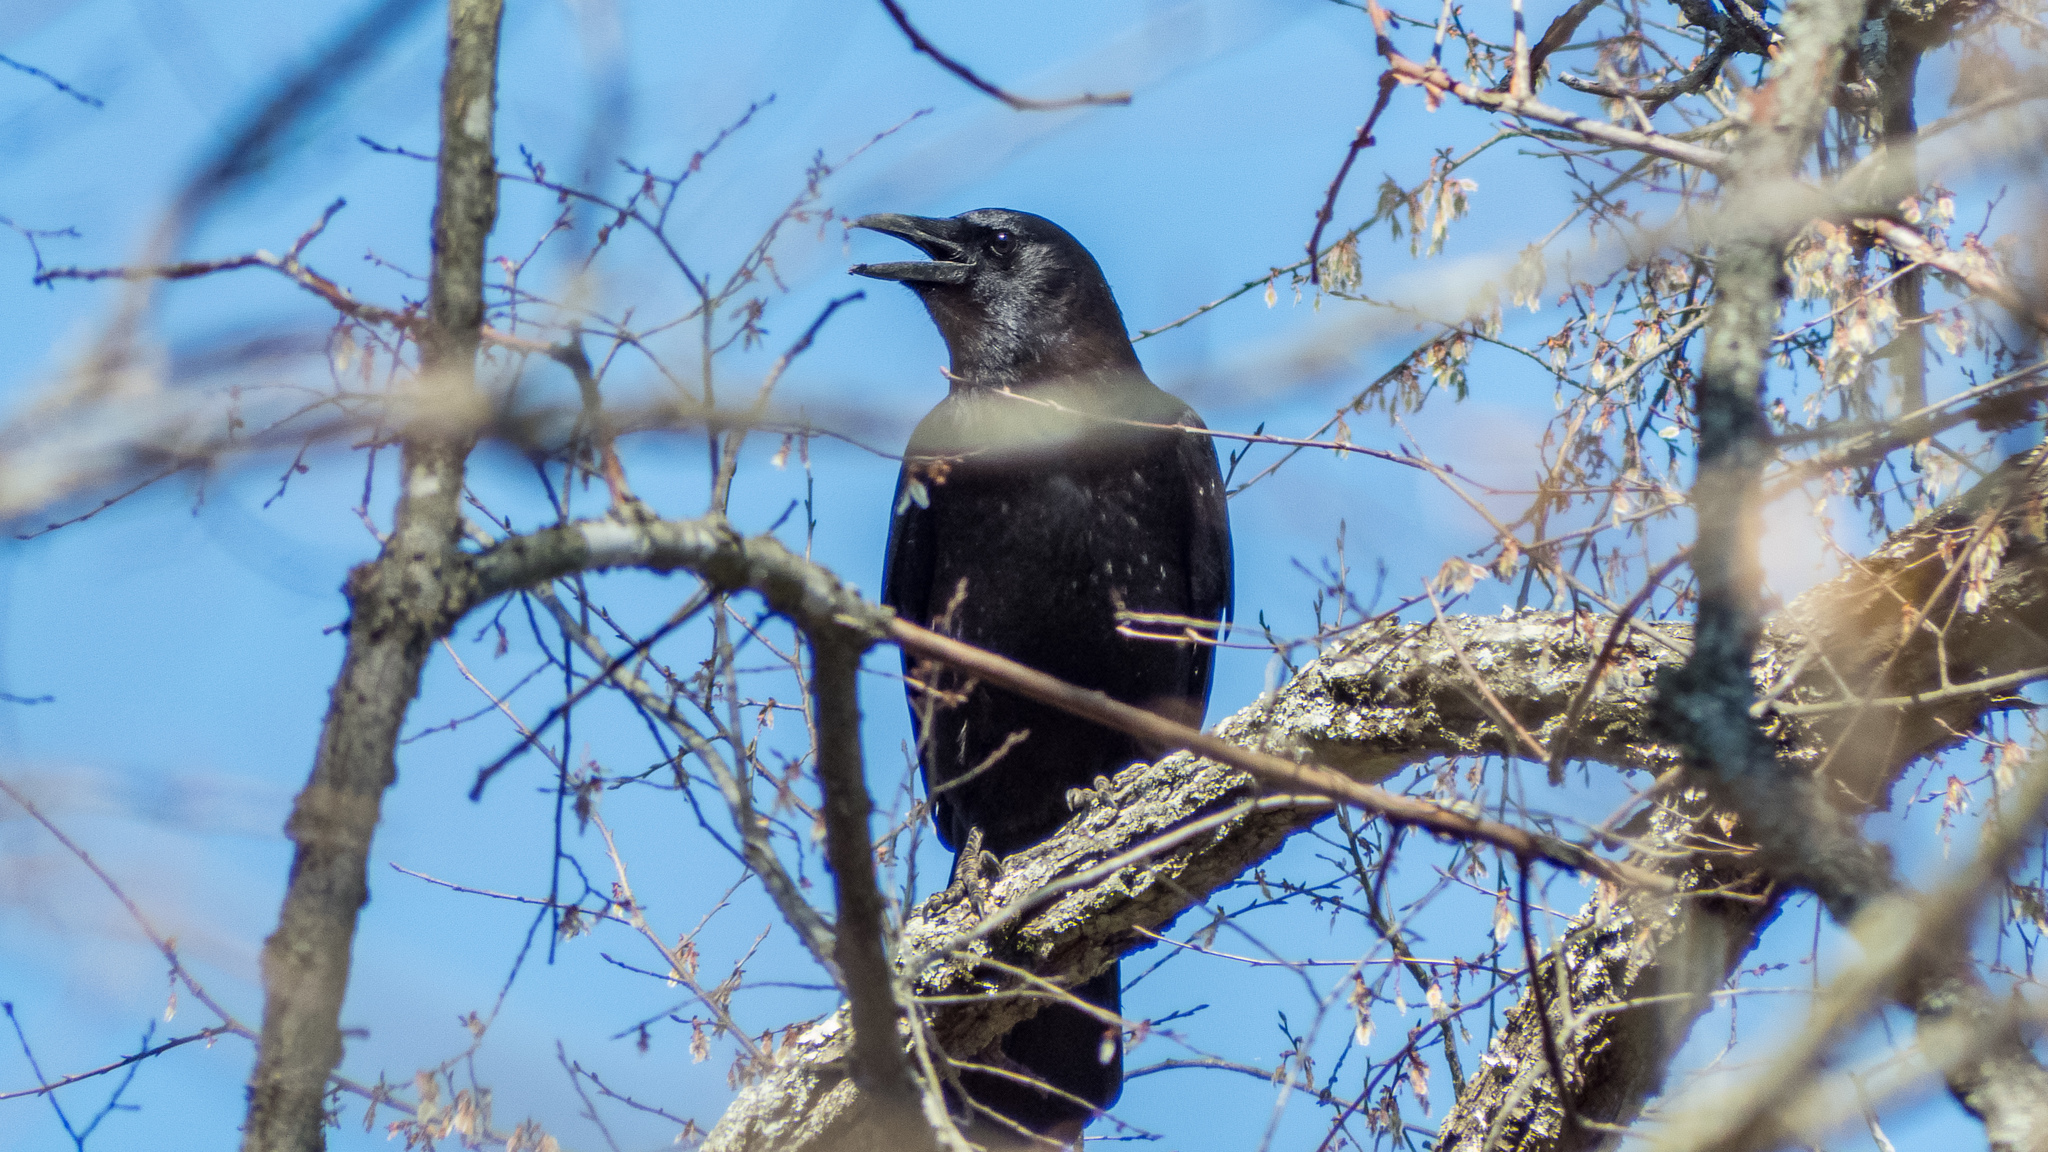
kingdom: Animalia
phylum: Chordata
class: Aves
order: Passeriformes
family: Corvidae
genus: Corvus
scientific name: Corvus brachyrhynchos
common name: American crow
